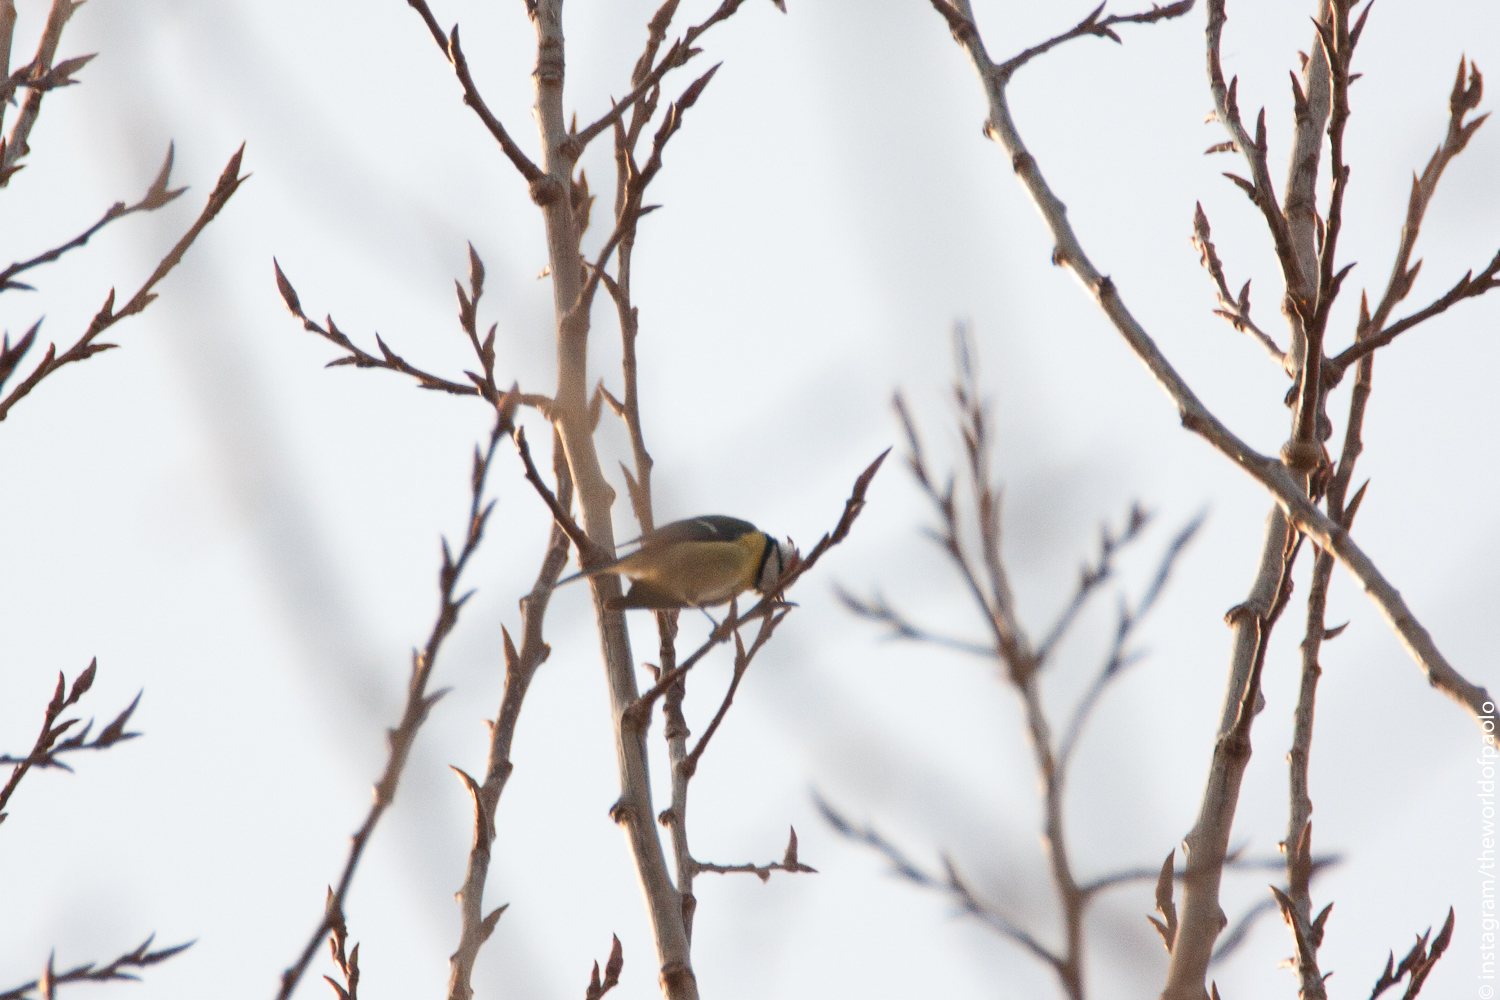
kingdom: Animalia
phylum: Chordata
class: Aves
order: Passeriformes
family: Paridae
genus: Cyanistes
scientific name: Cyanistes caeruleus
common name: Eurasian blue tit
